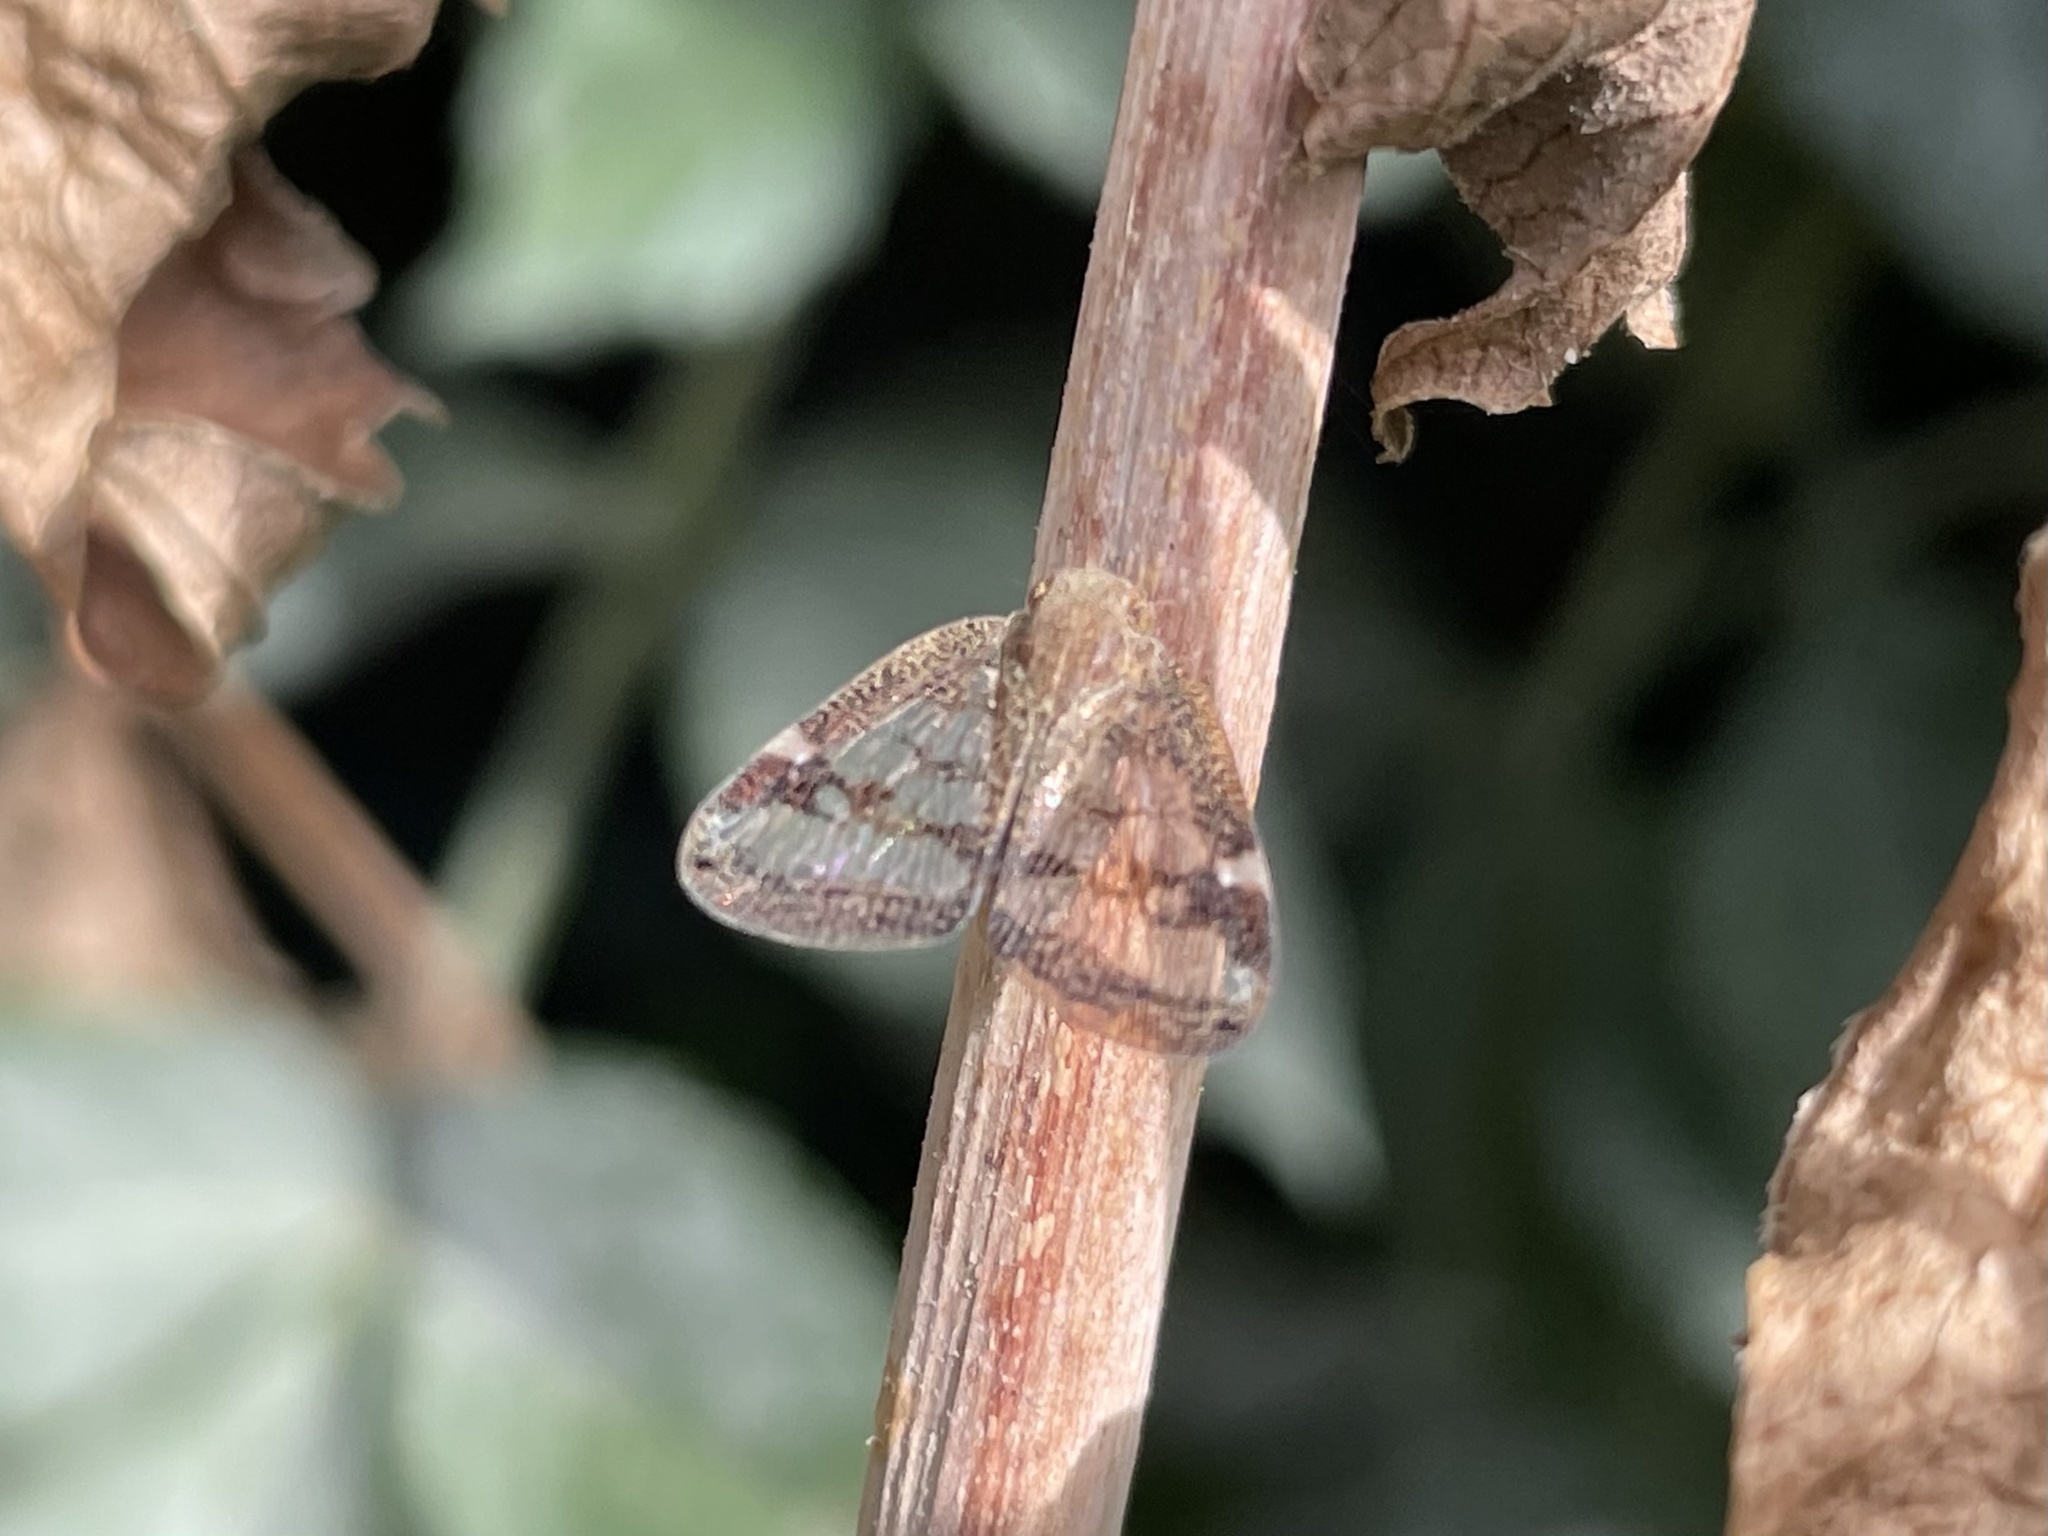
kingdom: Animalia
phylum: Arthropoda
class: Insecta
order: Hemiptera
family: Ricaniidae
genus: Scolypopa
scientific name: Scolypopa australis
